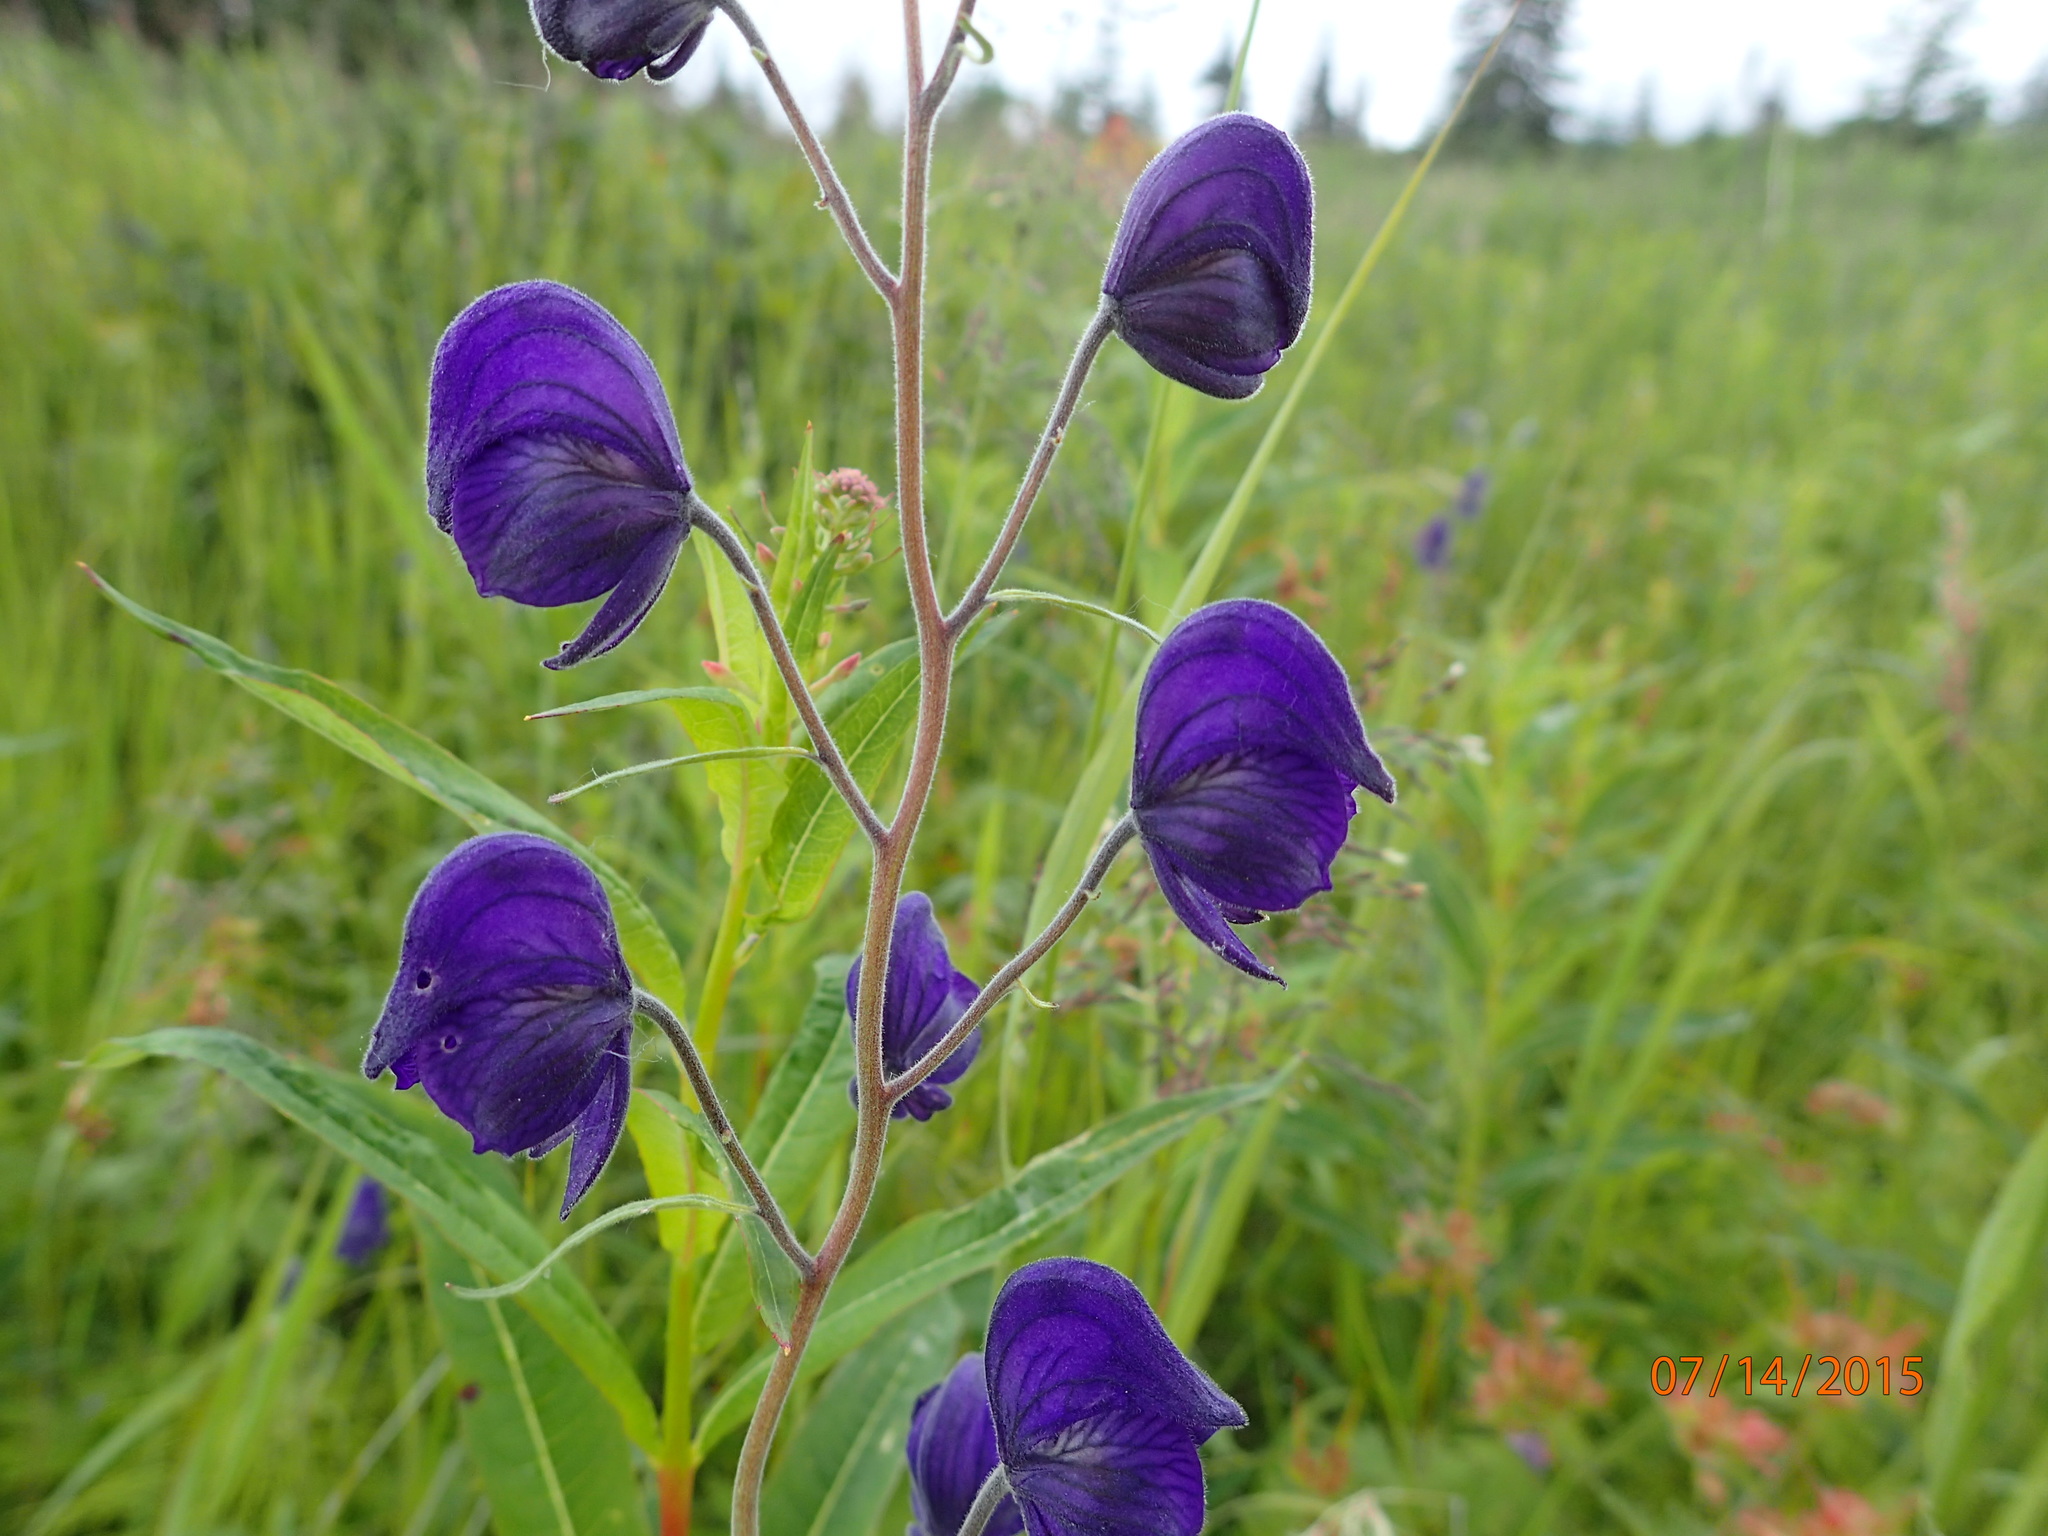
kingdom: Plantae
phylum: Tracheophyta
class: Magnoliopsida
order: Ranunculales
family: Ranunculaceae
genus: Aconitum
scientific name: Aconitum delphiniifolium
